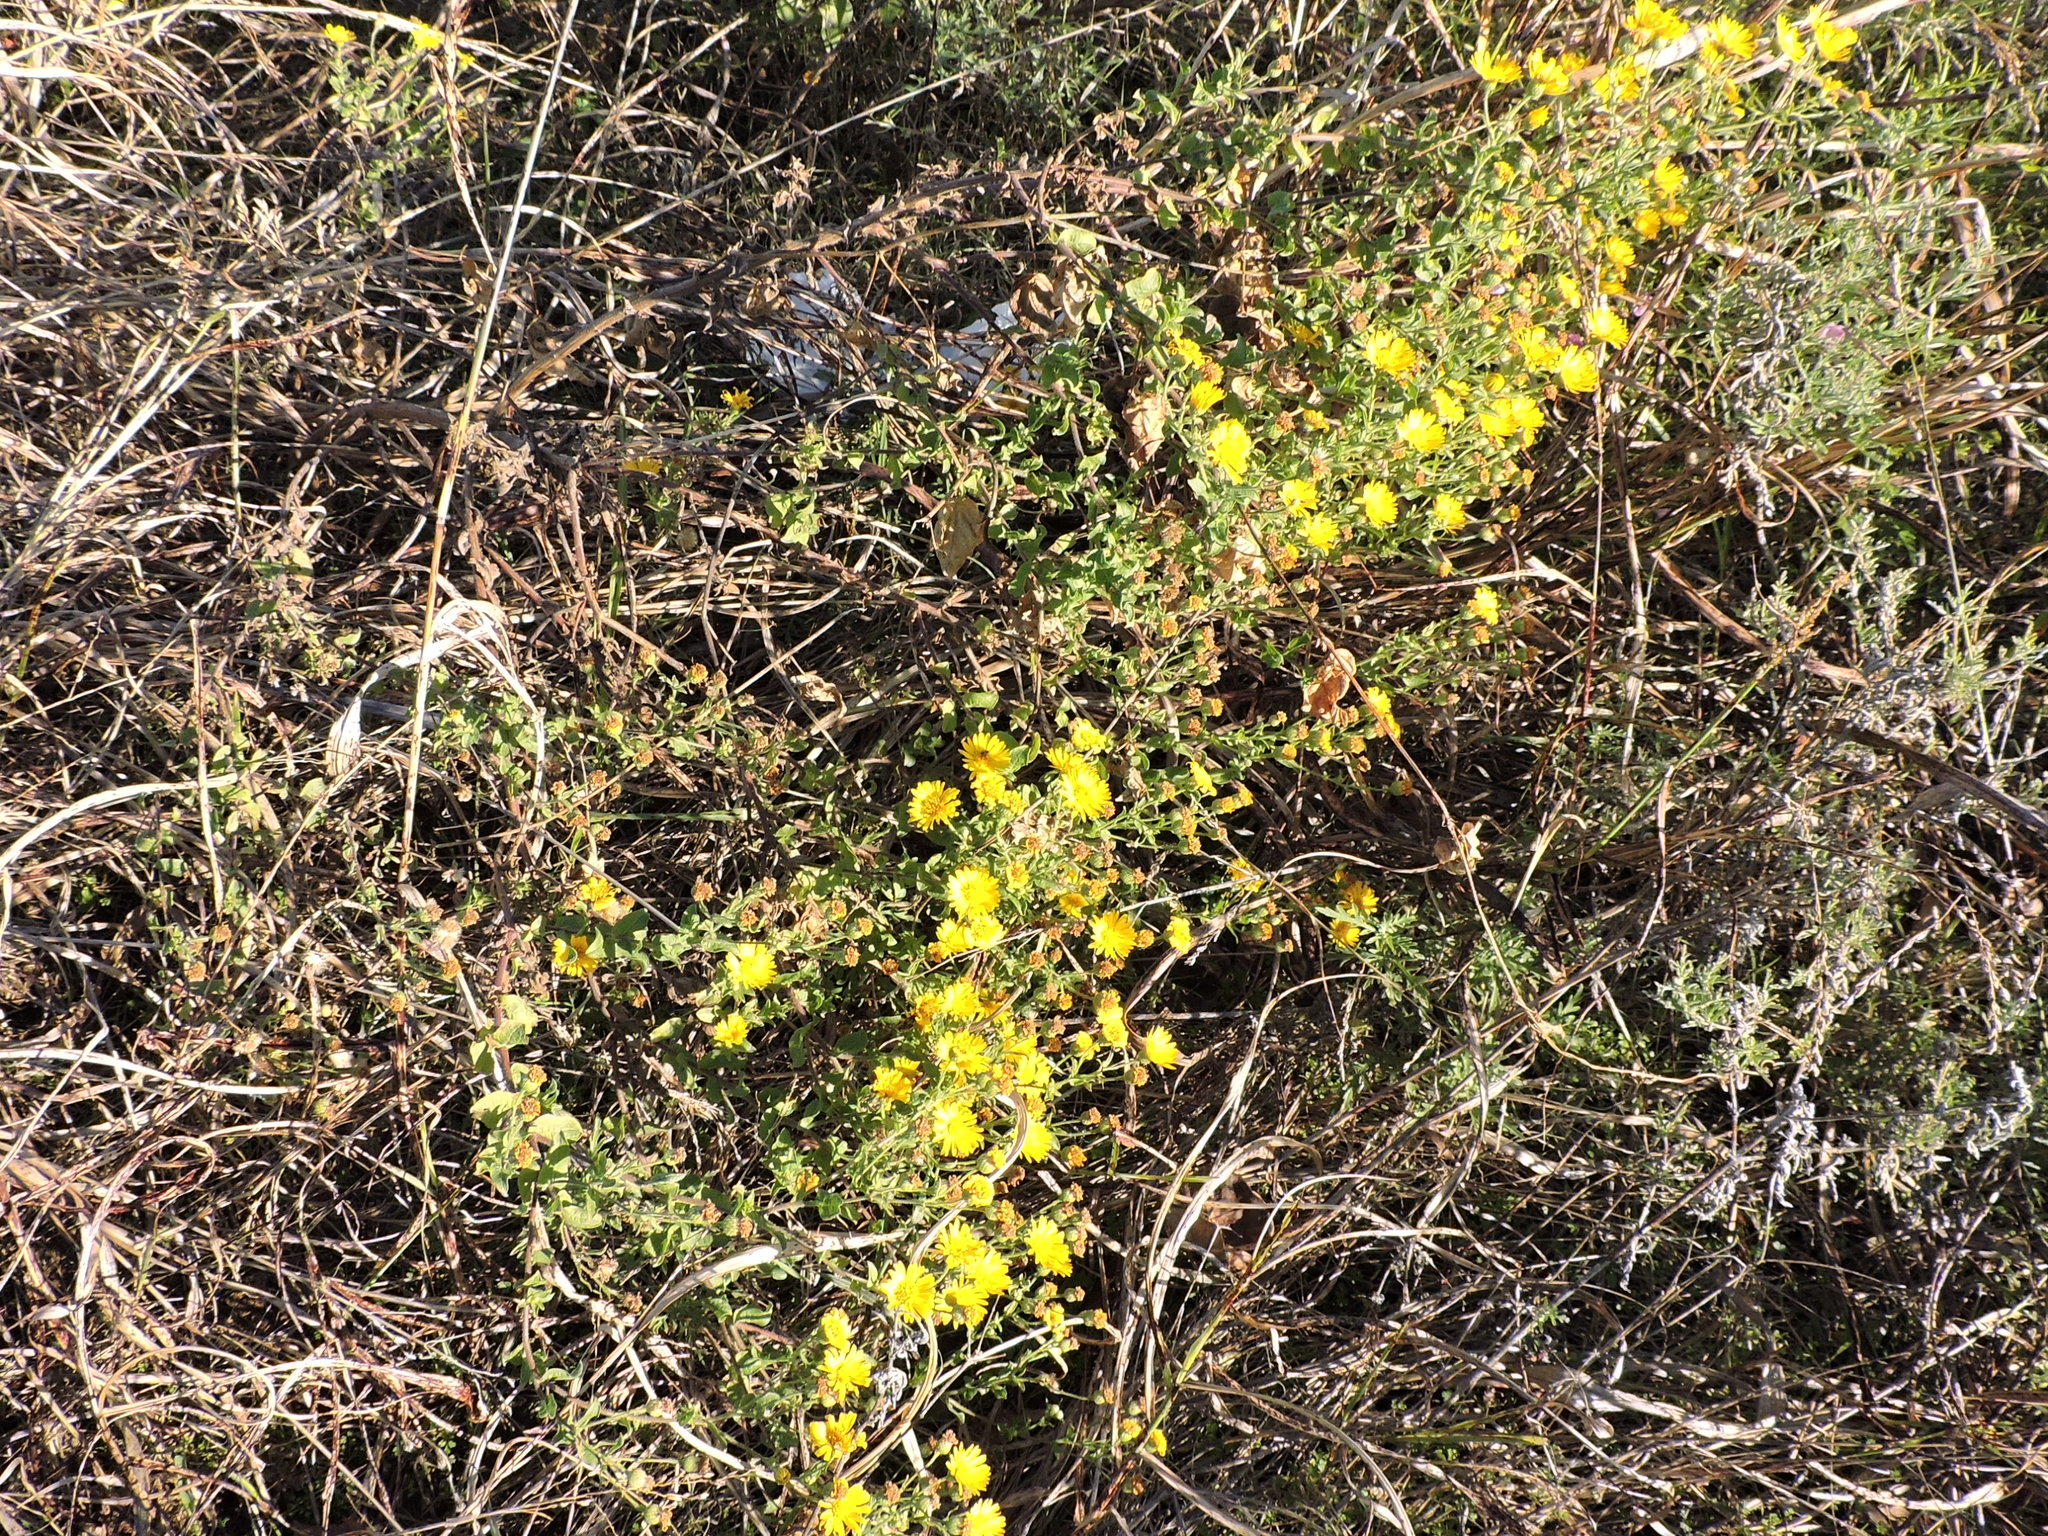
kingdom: Plantae
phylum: Tracheophyta
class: Magnoliopsida
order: Asterales
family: Asteraceae
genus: Heterotheca
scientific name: Heterotheca subaxillaris
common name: Camphorweed
